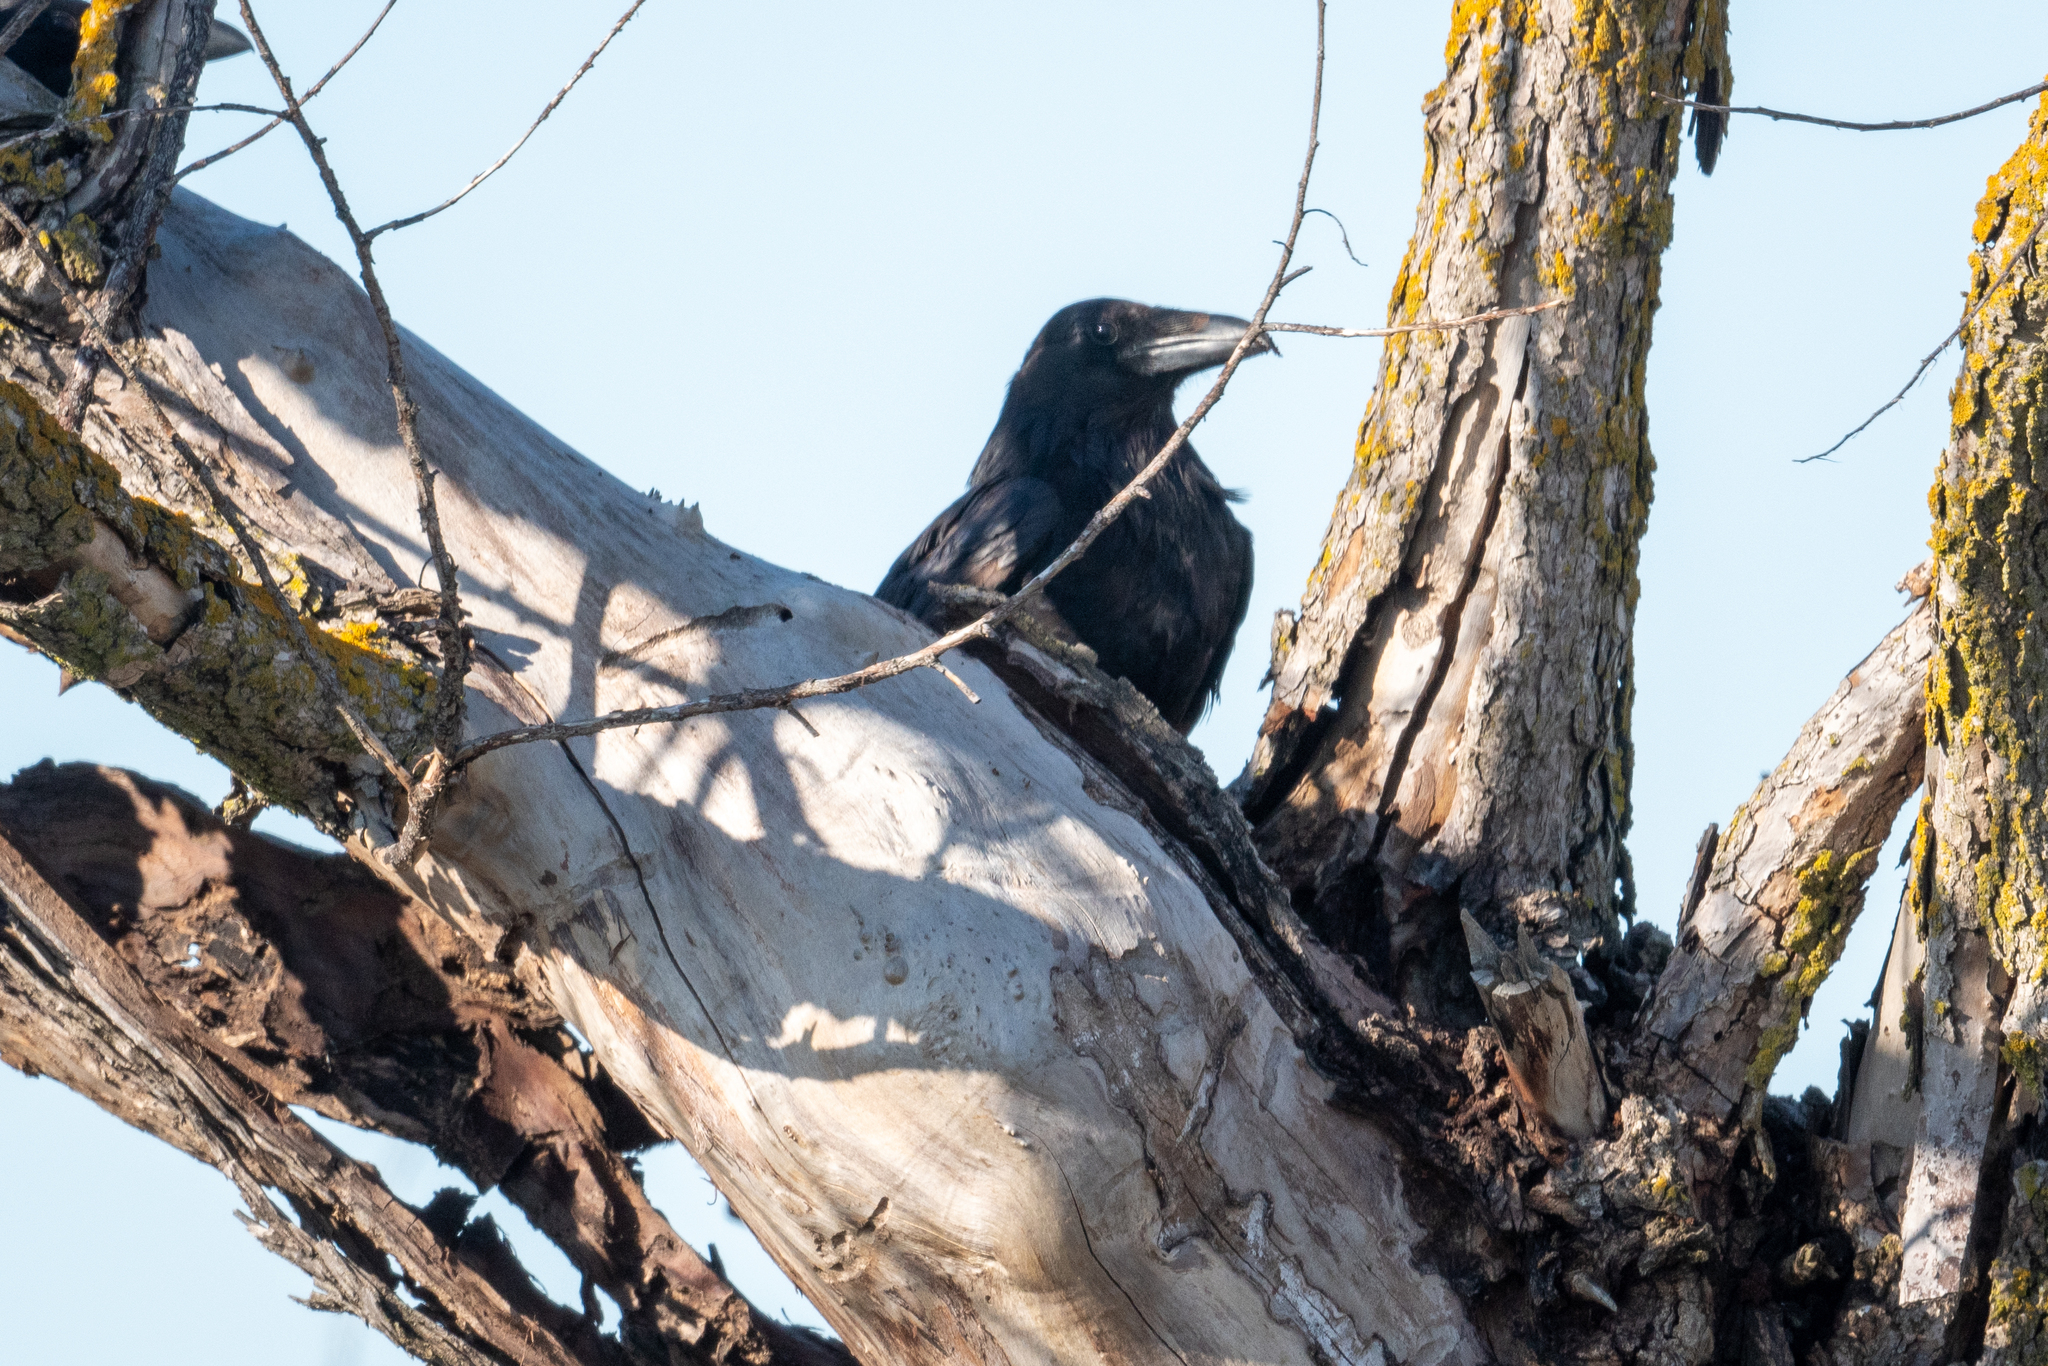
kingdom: Animalia
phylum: Chordata
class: Aves
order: Passeriformes
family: Corvidae
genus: Corvus
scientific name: Corvus corax
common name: Common raven
